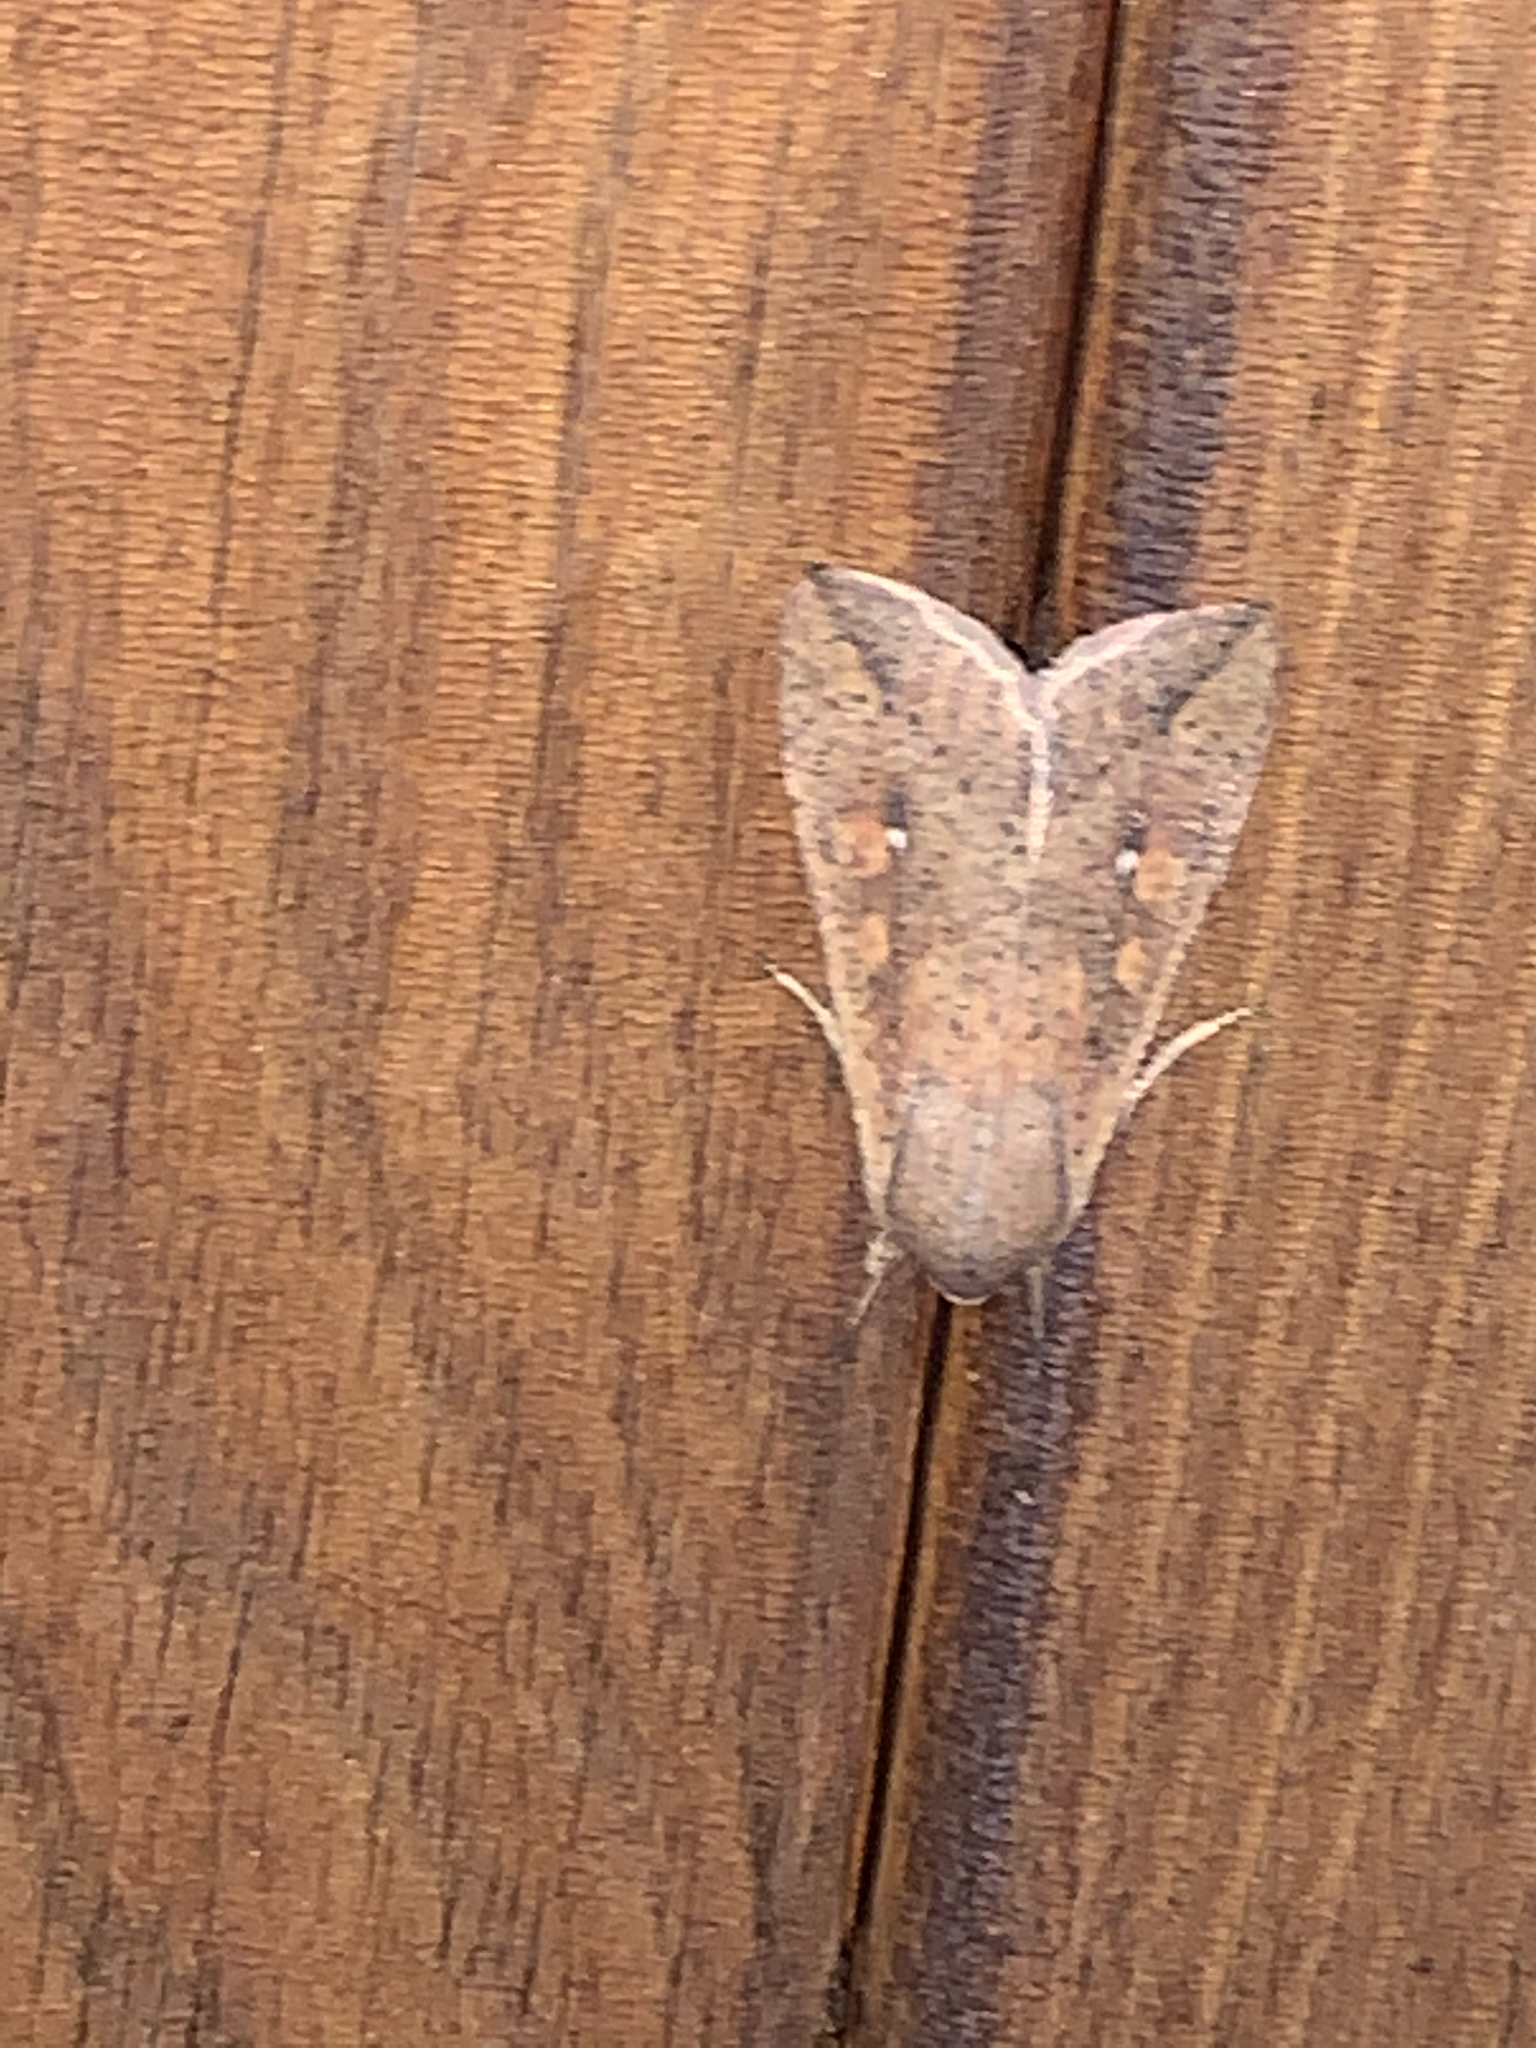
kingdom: Animalia
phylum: Arthropoda
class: Insecta
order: Lepidoptera
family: Noctuidae
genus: Mythimna
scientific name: Mythimna unipuncta
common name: White-speck
